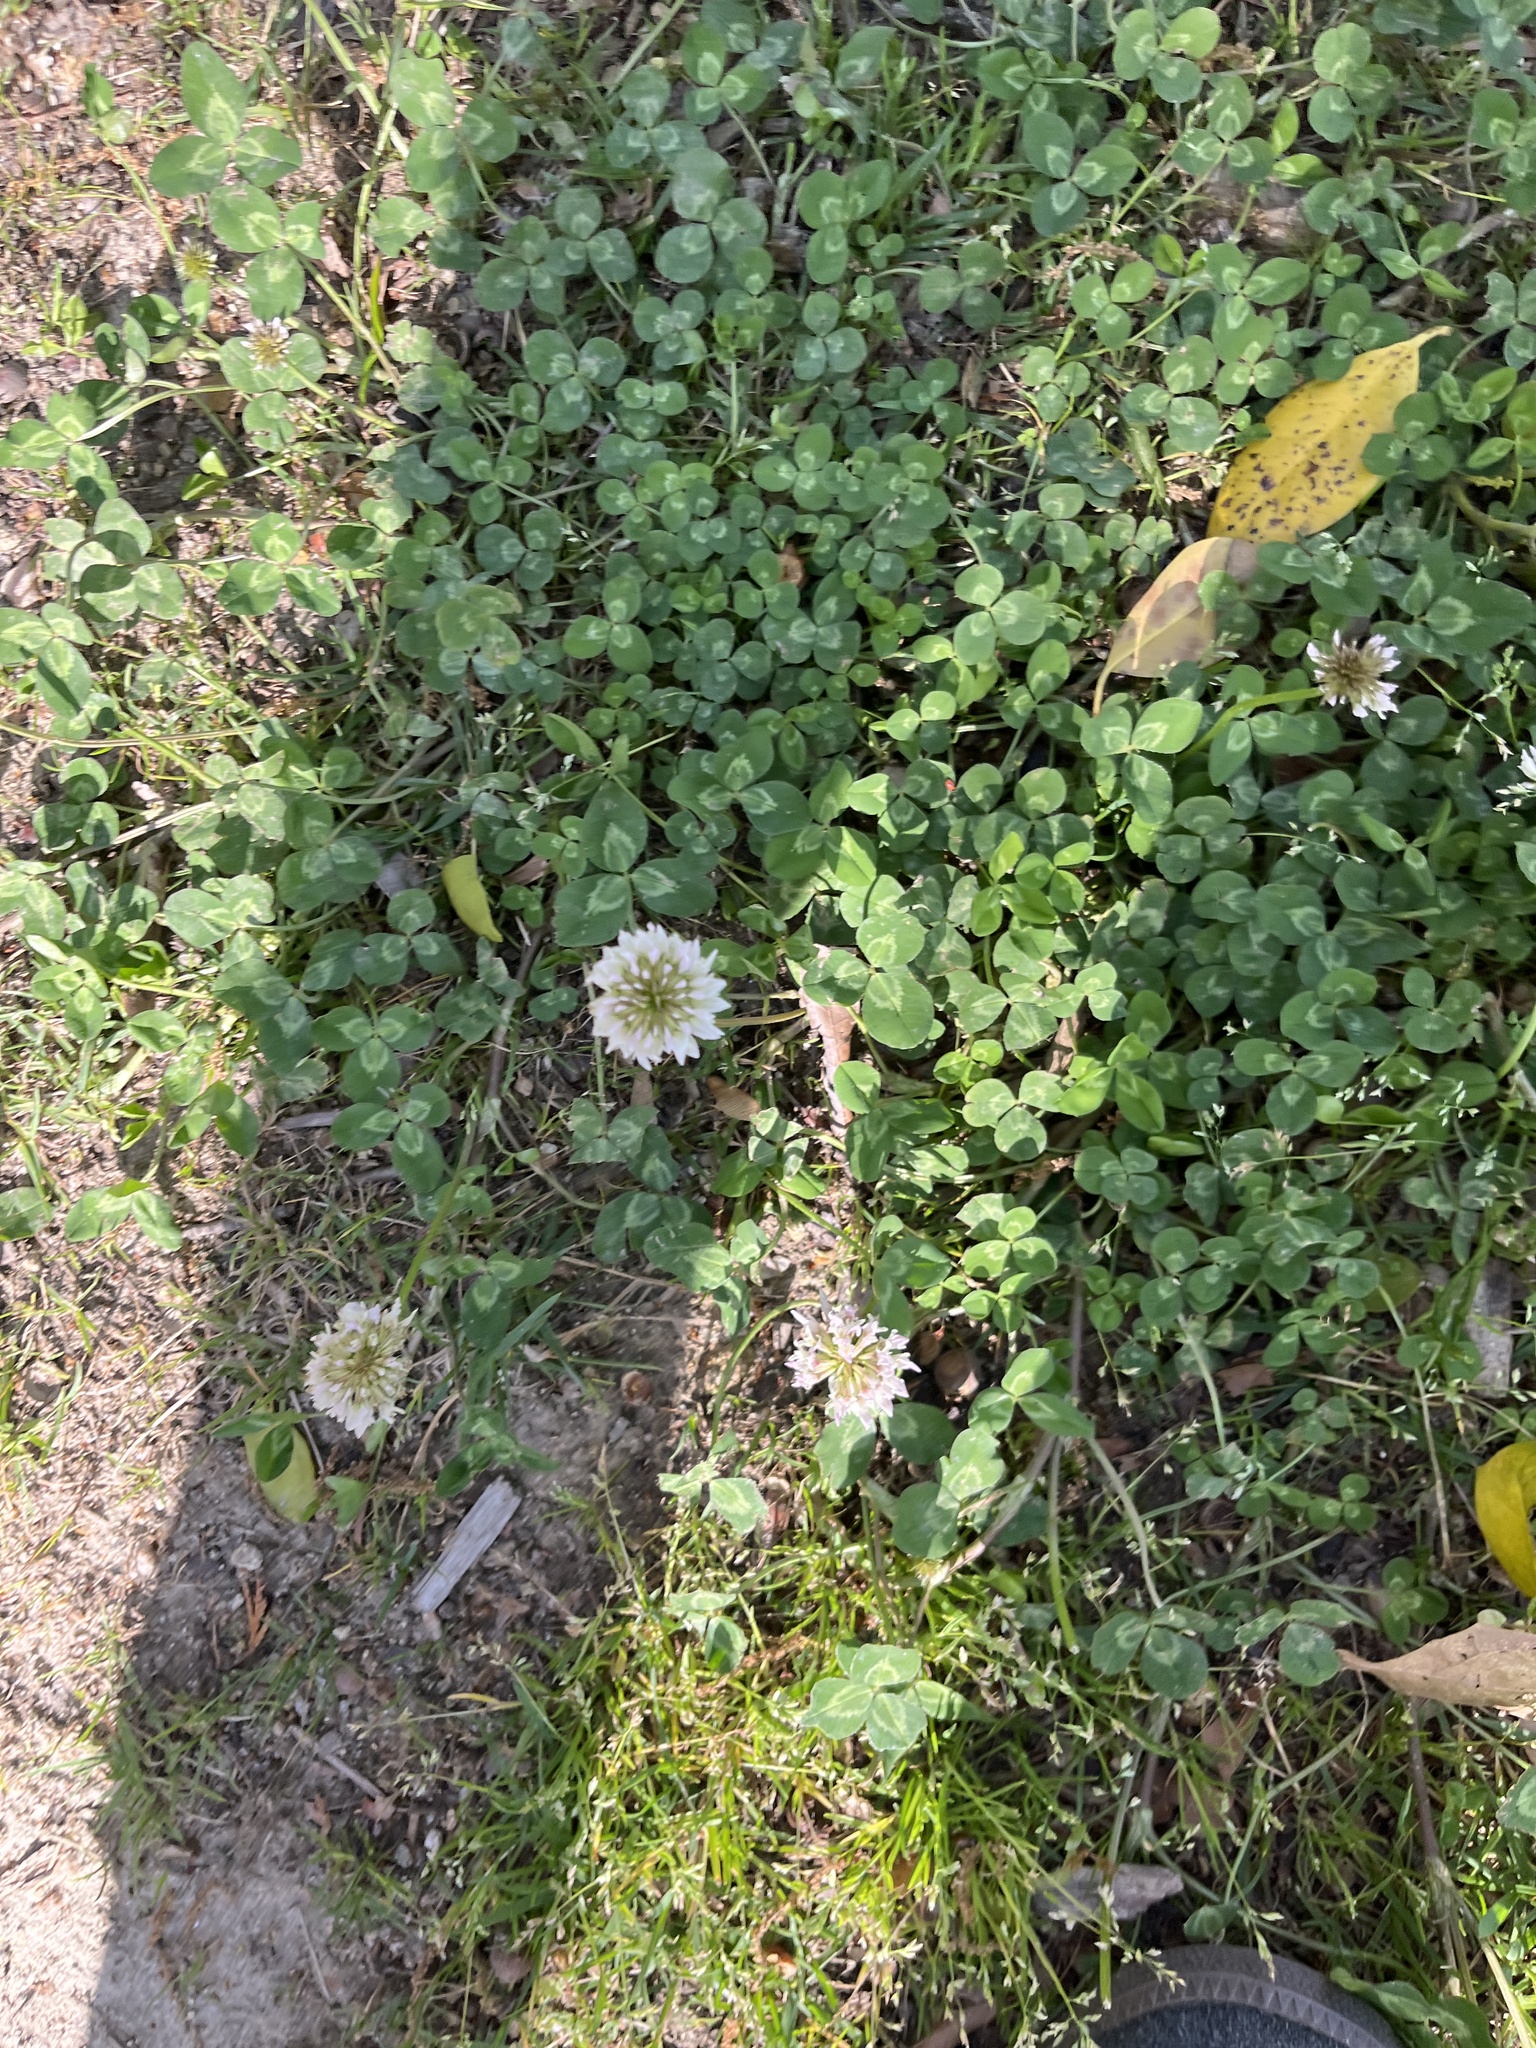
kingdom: Plantae
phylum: Tracheophyta
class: Magnoliopsida
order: Fabales
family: Fabaceae
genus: Trifolium
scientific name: Trifolium repens
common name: White clover
